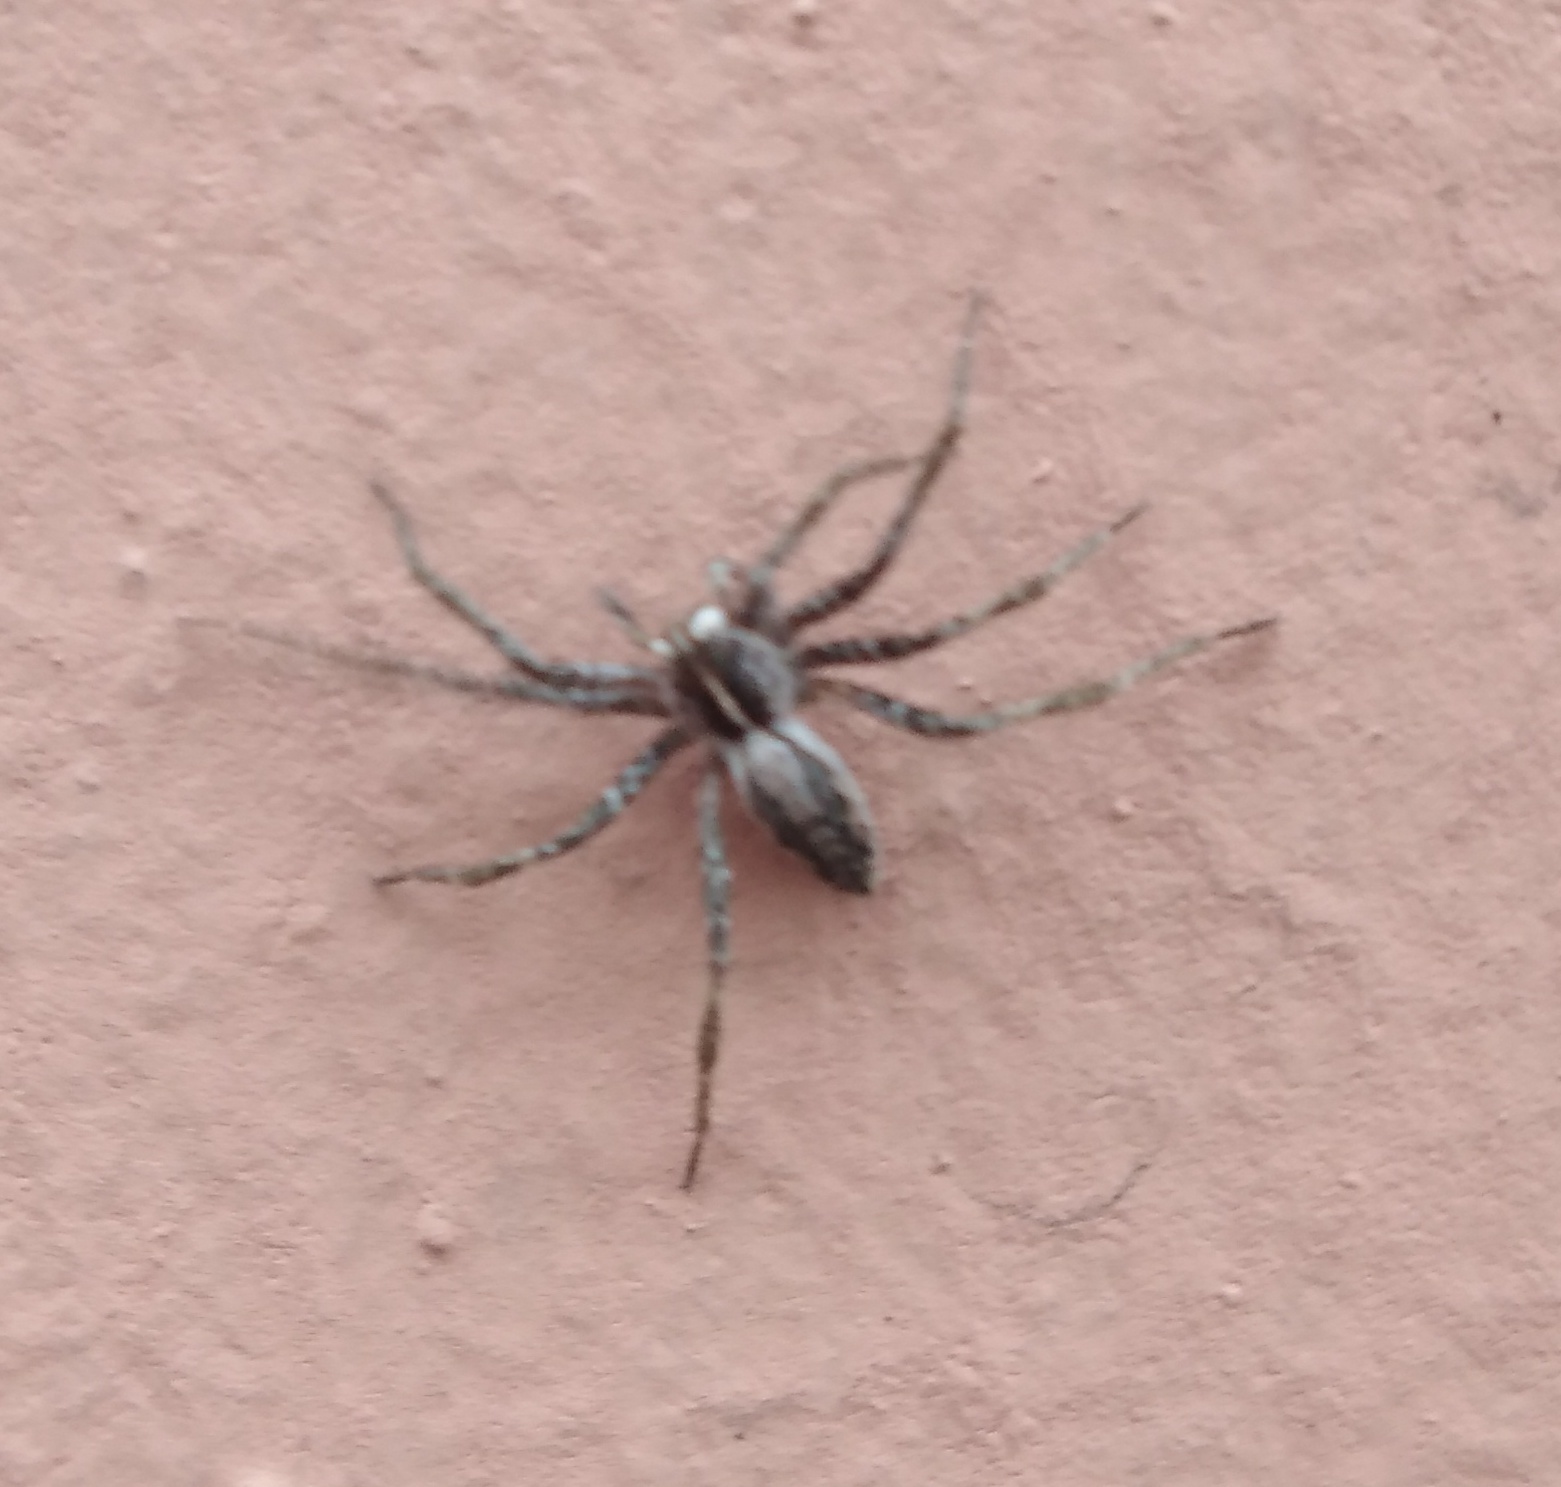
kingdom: Animalia
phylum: Arthropoda
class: Arachnida
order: Araneae
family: Pisauridae
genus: Pisaura
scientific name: Pisaura mirabilis
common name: Tent spider
